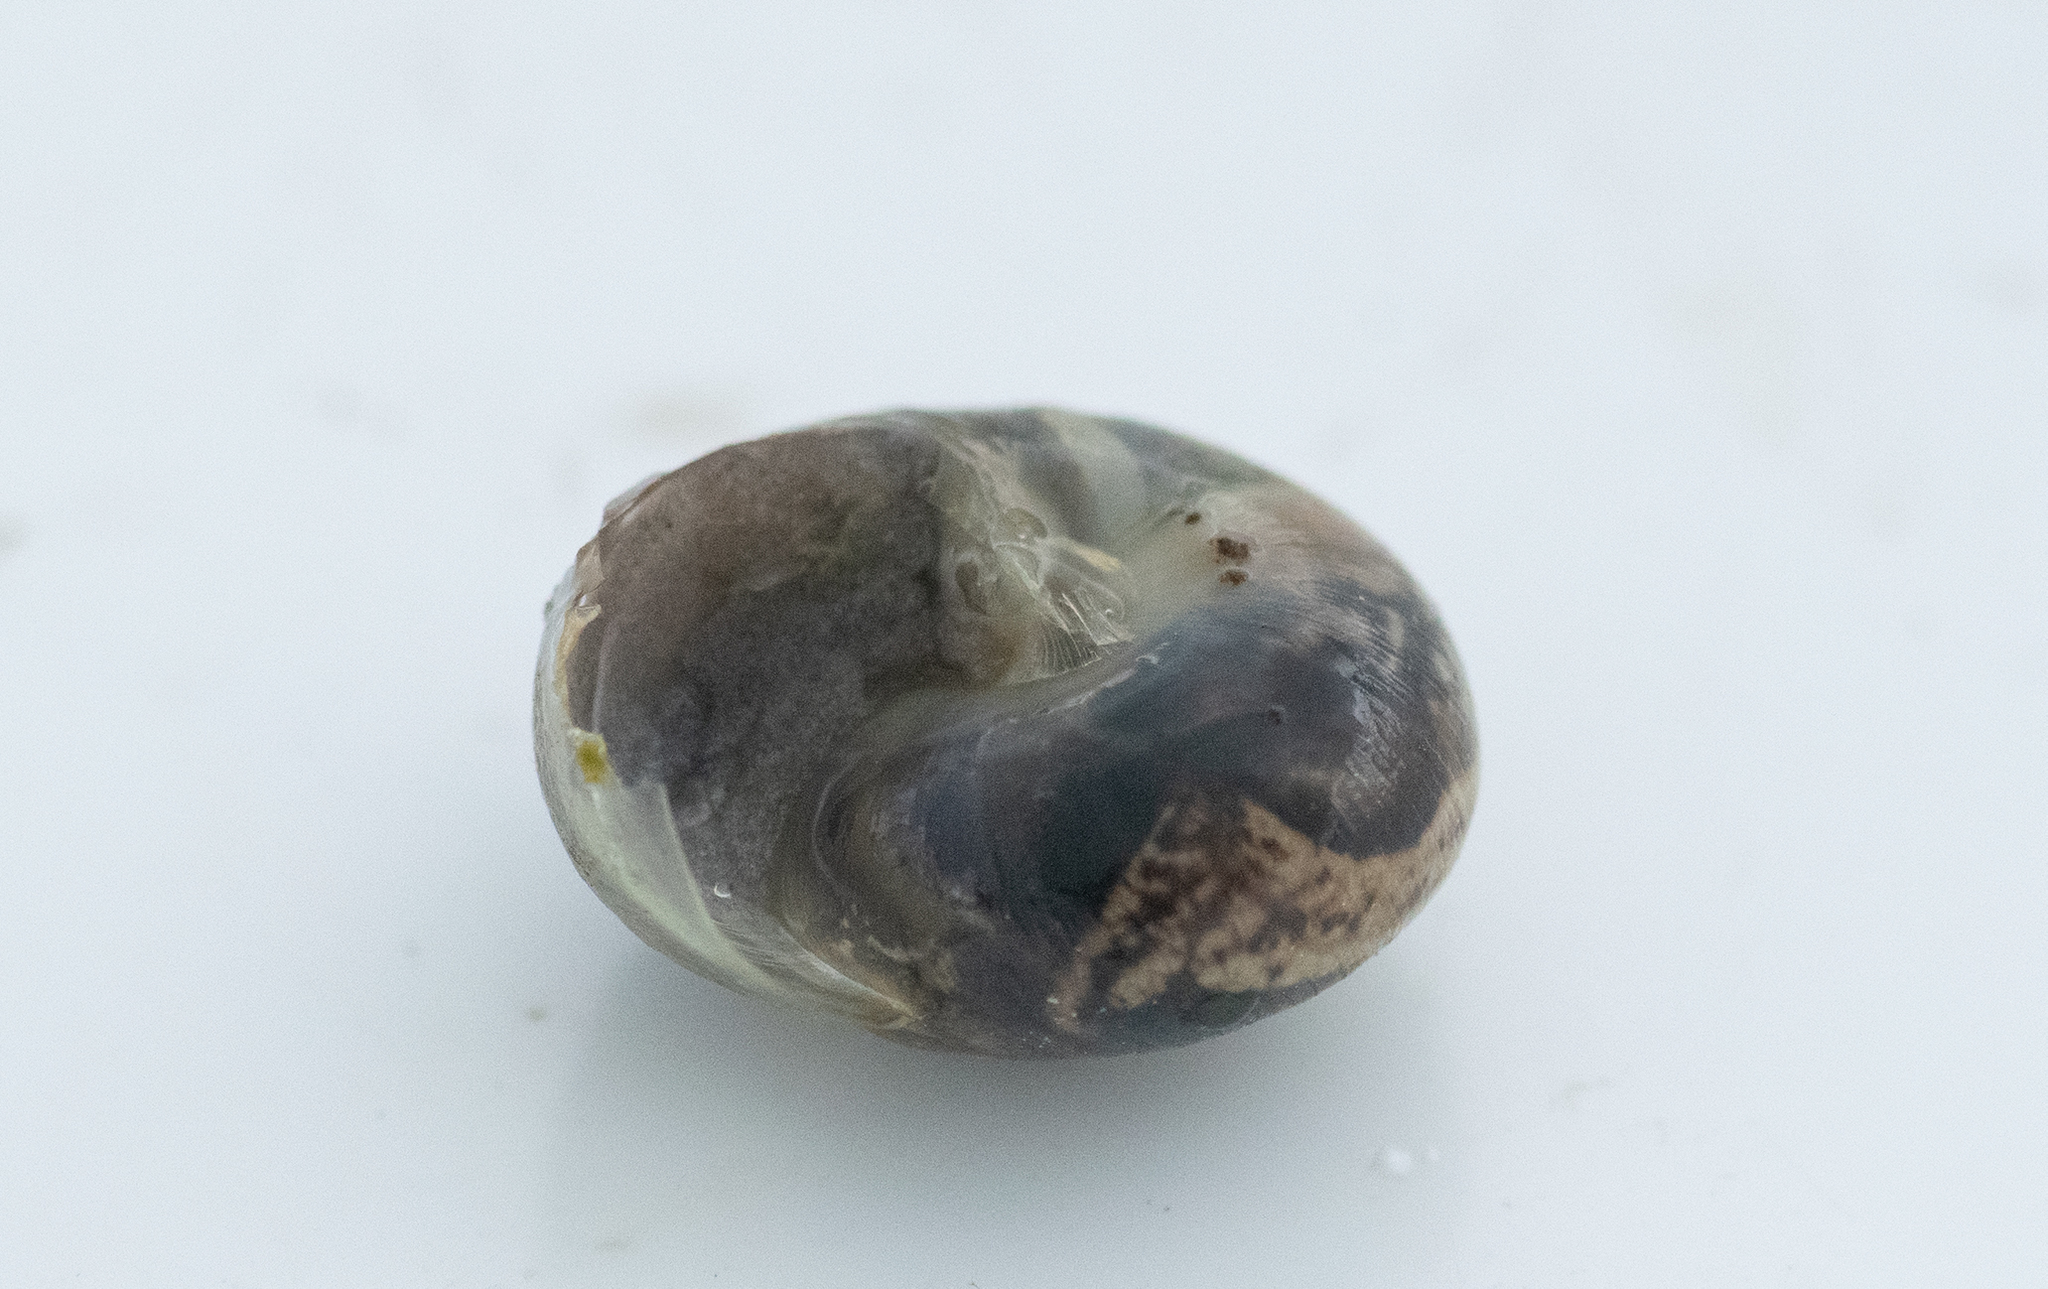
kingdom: Animalia
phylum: Mollusca
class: Gastropoda
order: Stylommatophora
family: Hygromiidae
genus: Monacha
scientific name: Monacha cantiana
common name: Kentish snail
